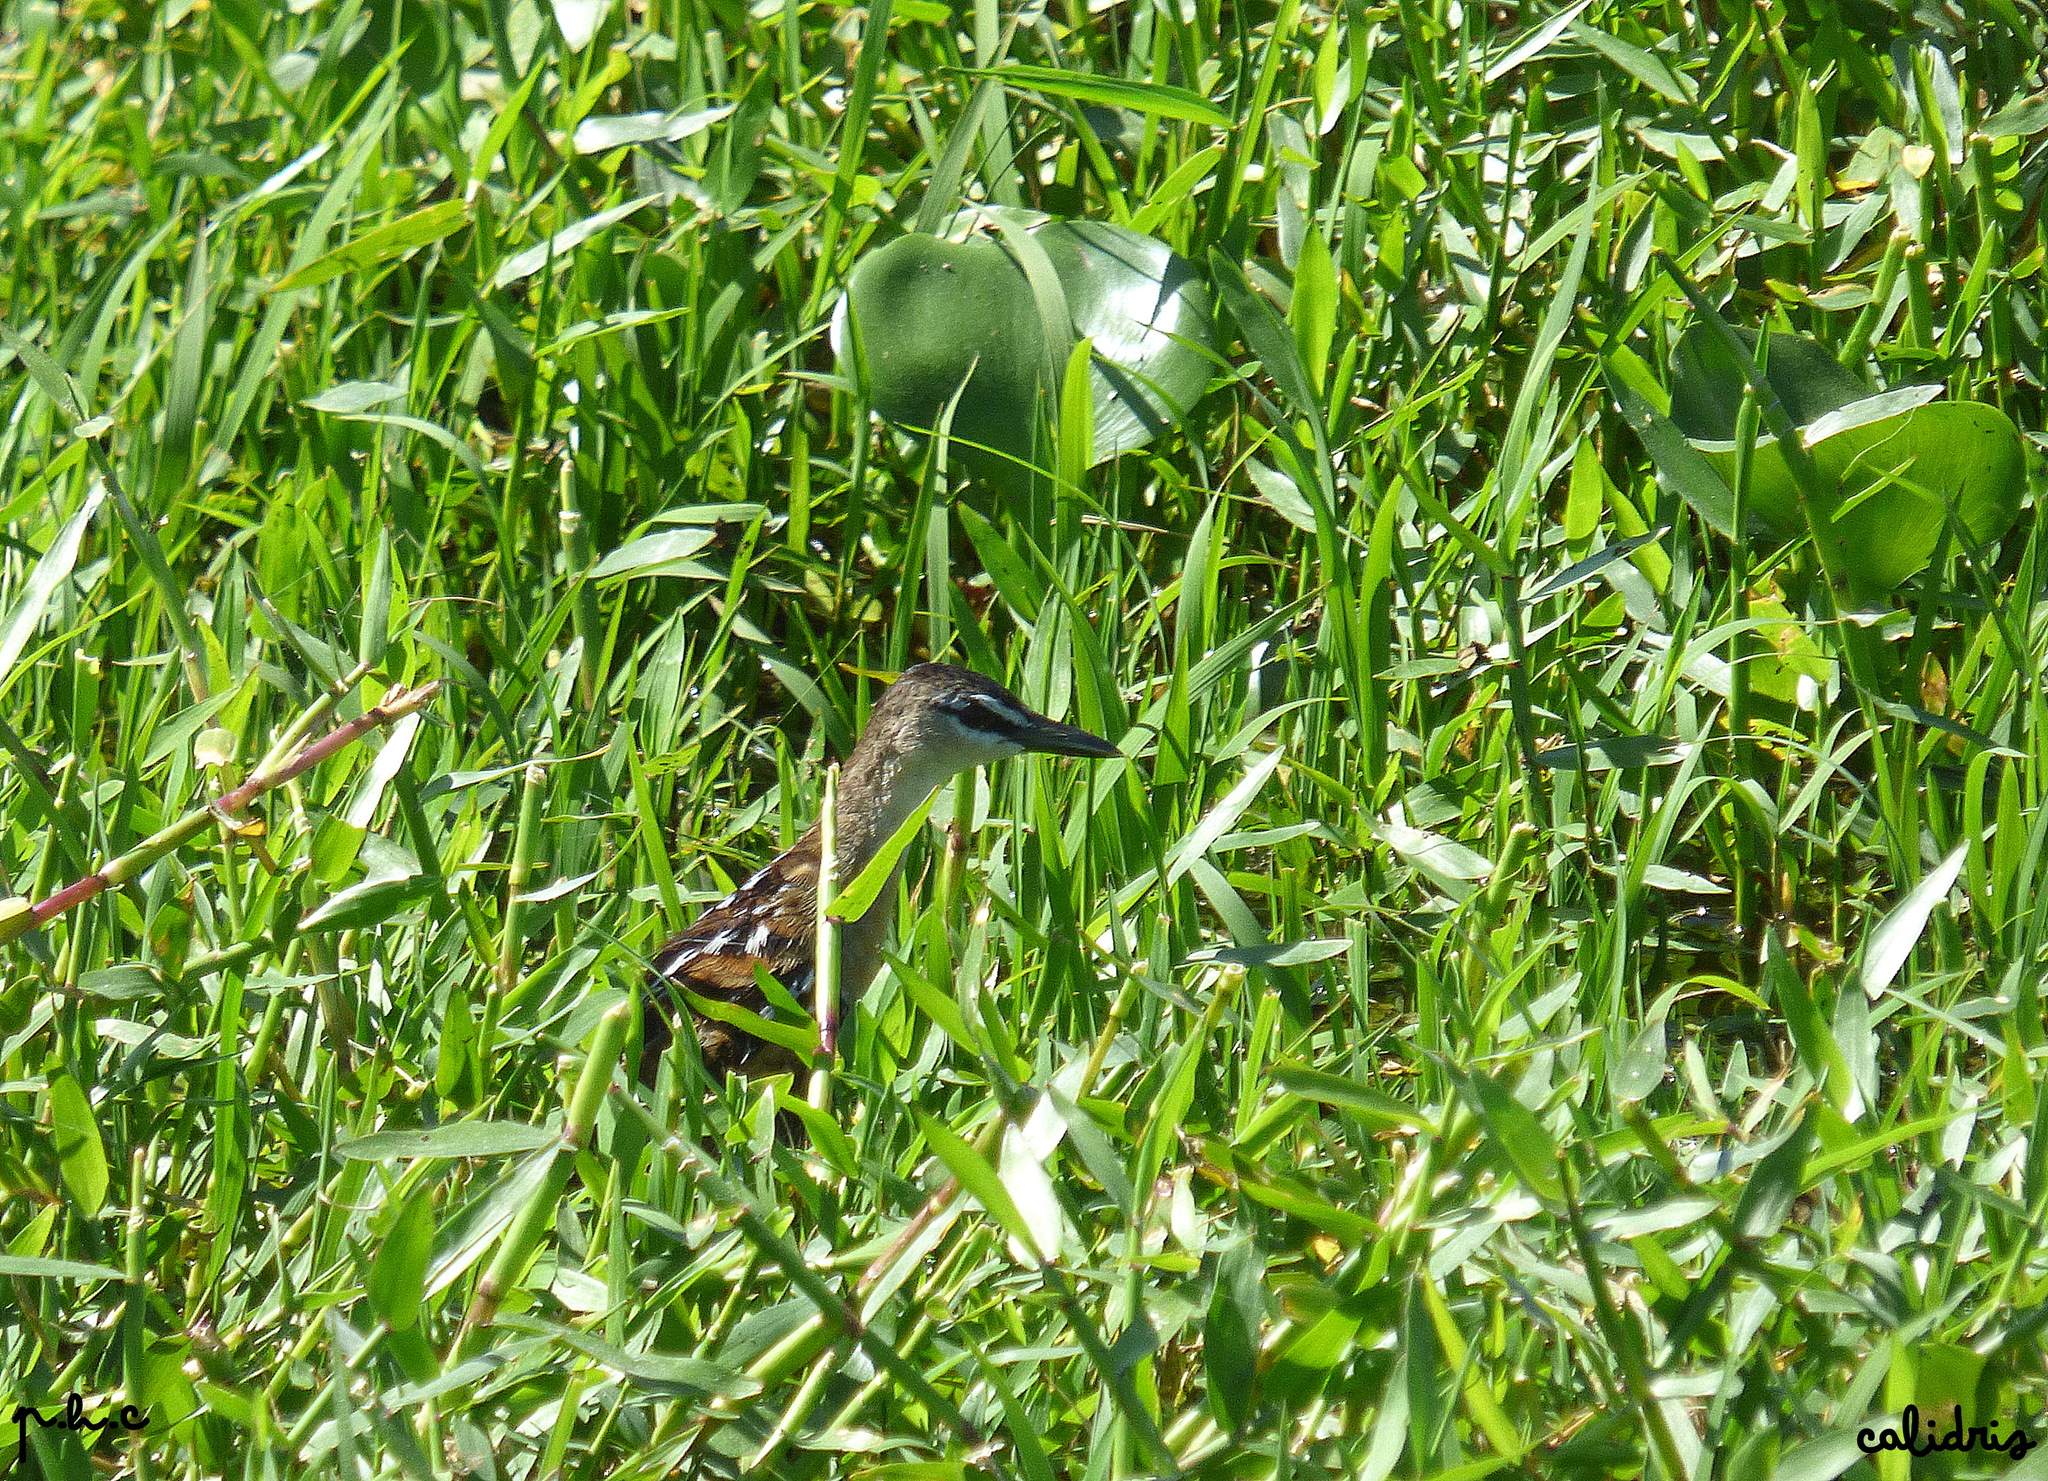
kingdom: Animalia
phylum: Chordata
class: Aves
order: Gruiformes
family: Rallidae
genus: Porzana
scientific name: Porzana flaviventer
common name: Yellow-breasted crake
